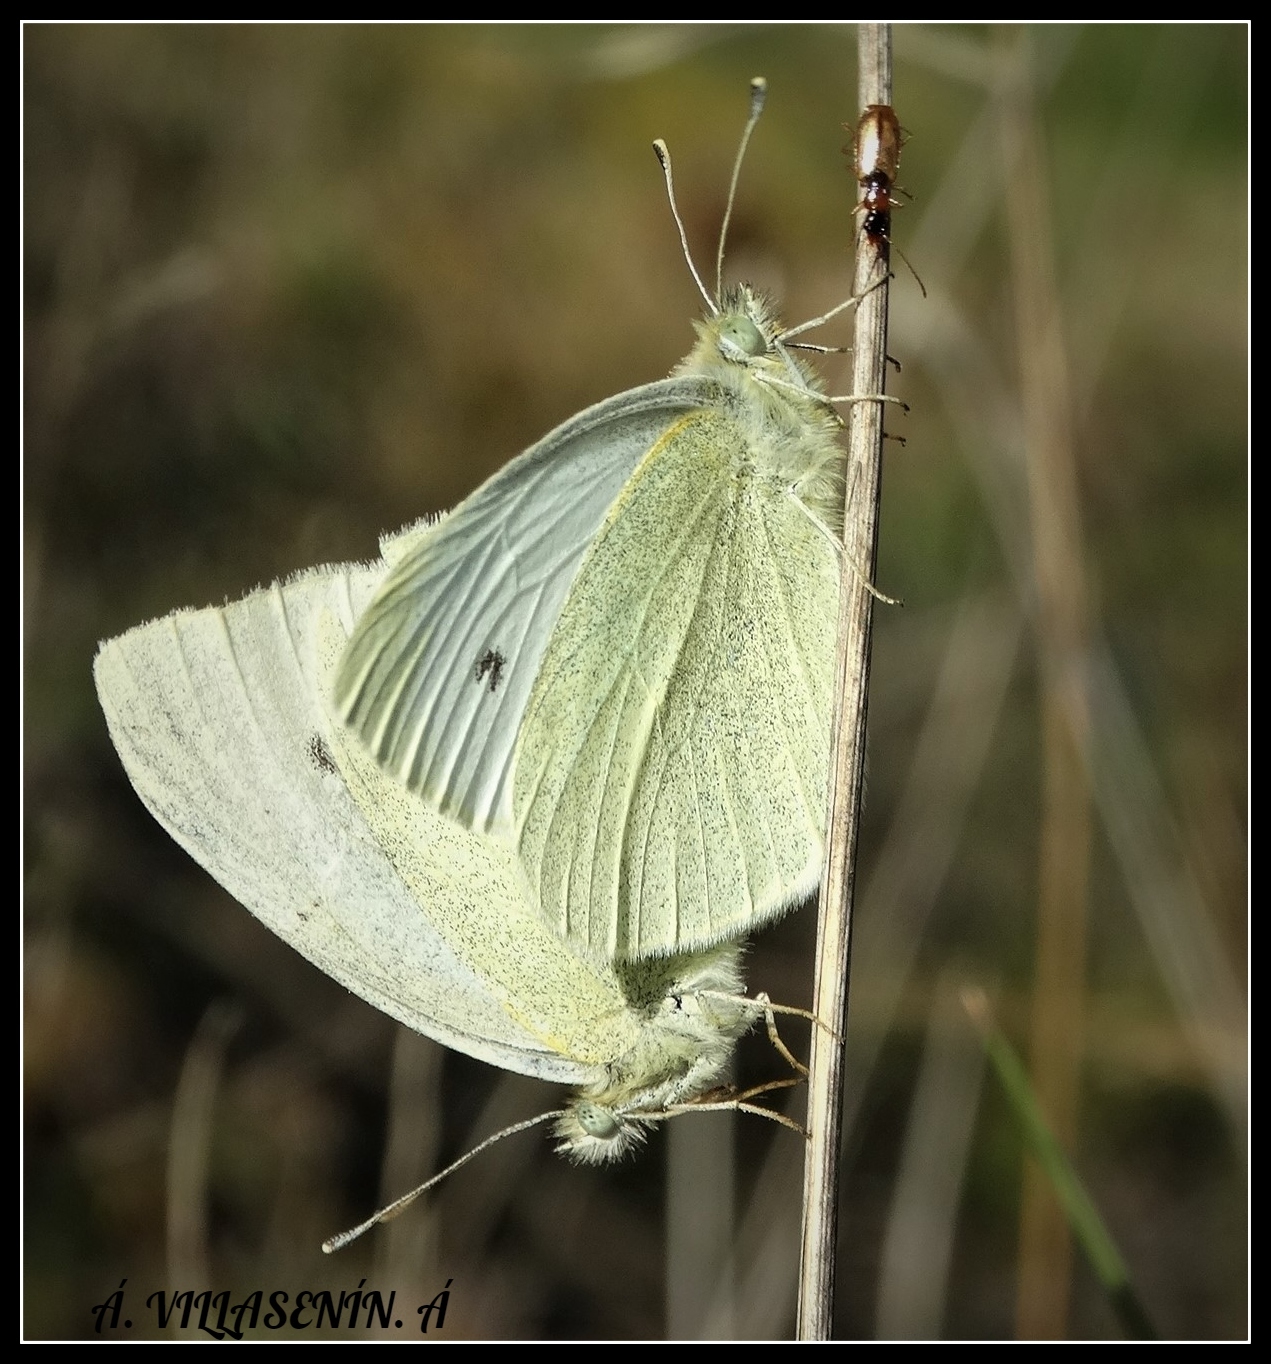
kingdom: Animalia
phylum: Arthropoda
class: Insecta
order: Lepidoptera
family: Pieridae
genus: Pieris
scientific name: Pieris rapae
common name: Small white
